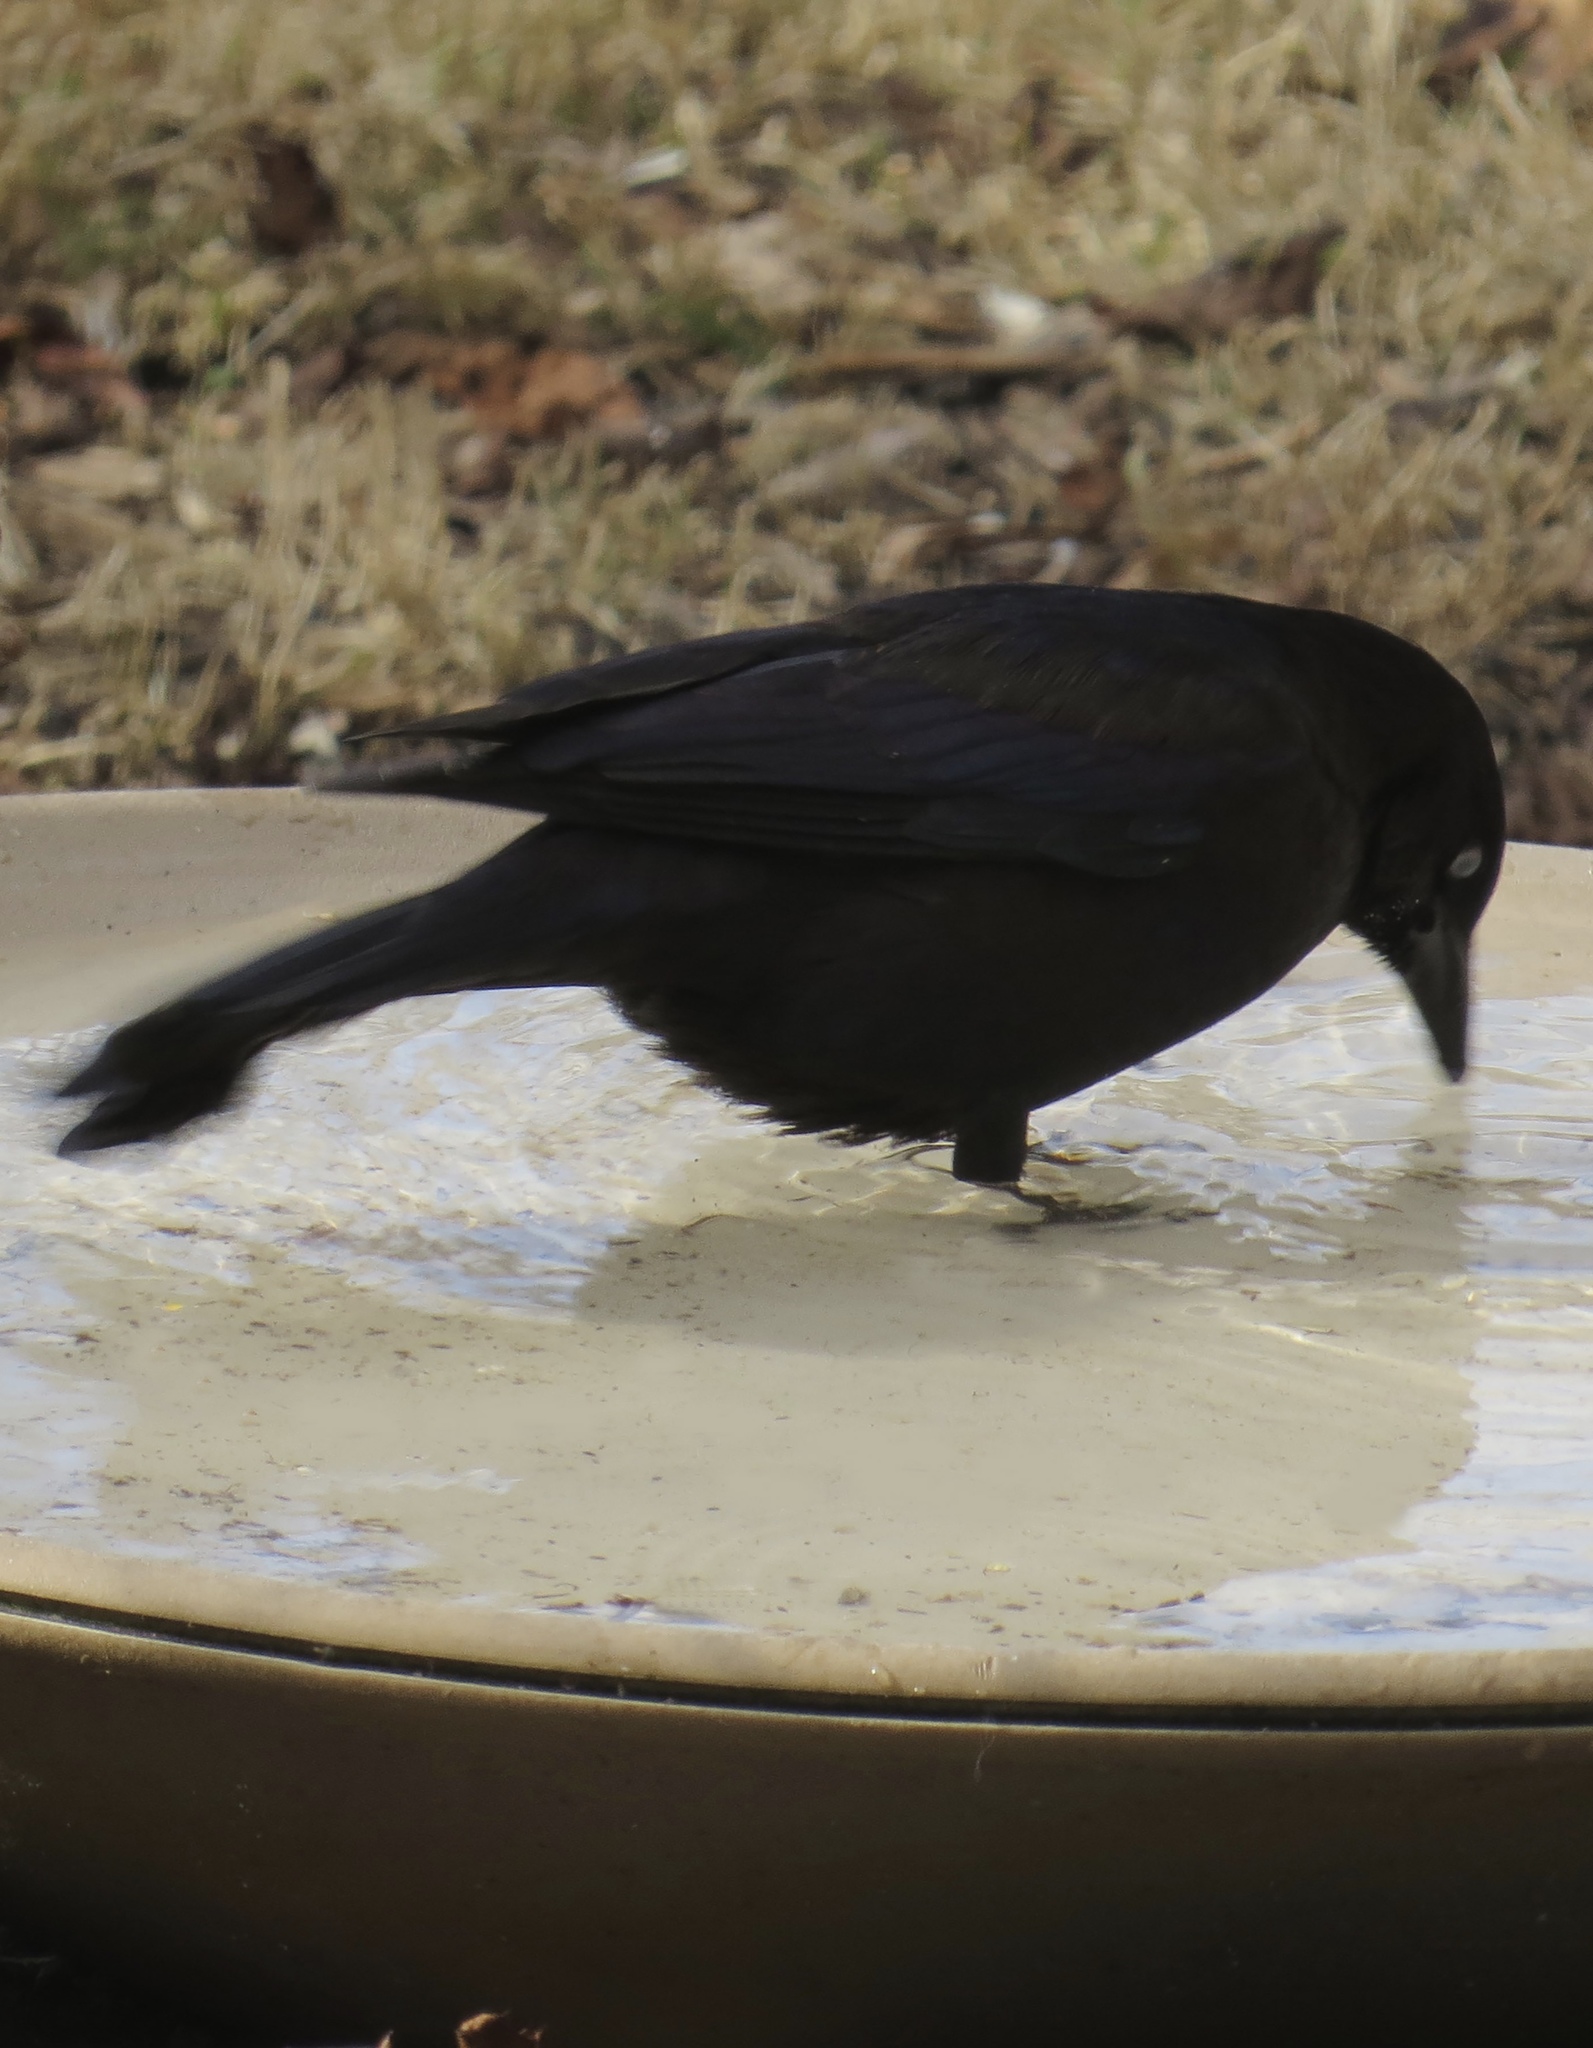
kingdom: Animalia
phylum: Chordata
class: Aves
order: Passeriformes
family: Icteridae
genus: Quiscalus
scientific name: Quiscalus quiscula
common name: Common grackle
